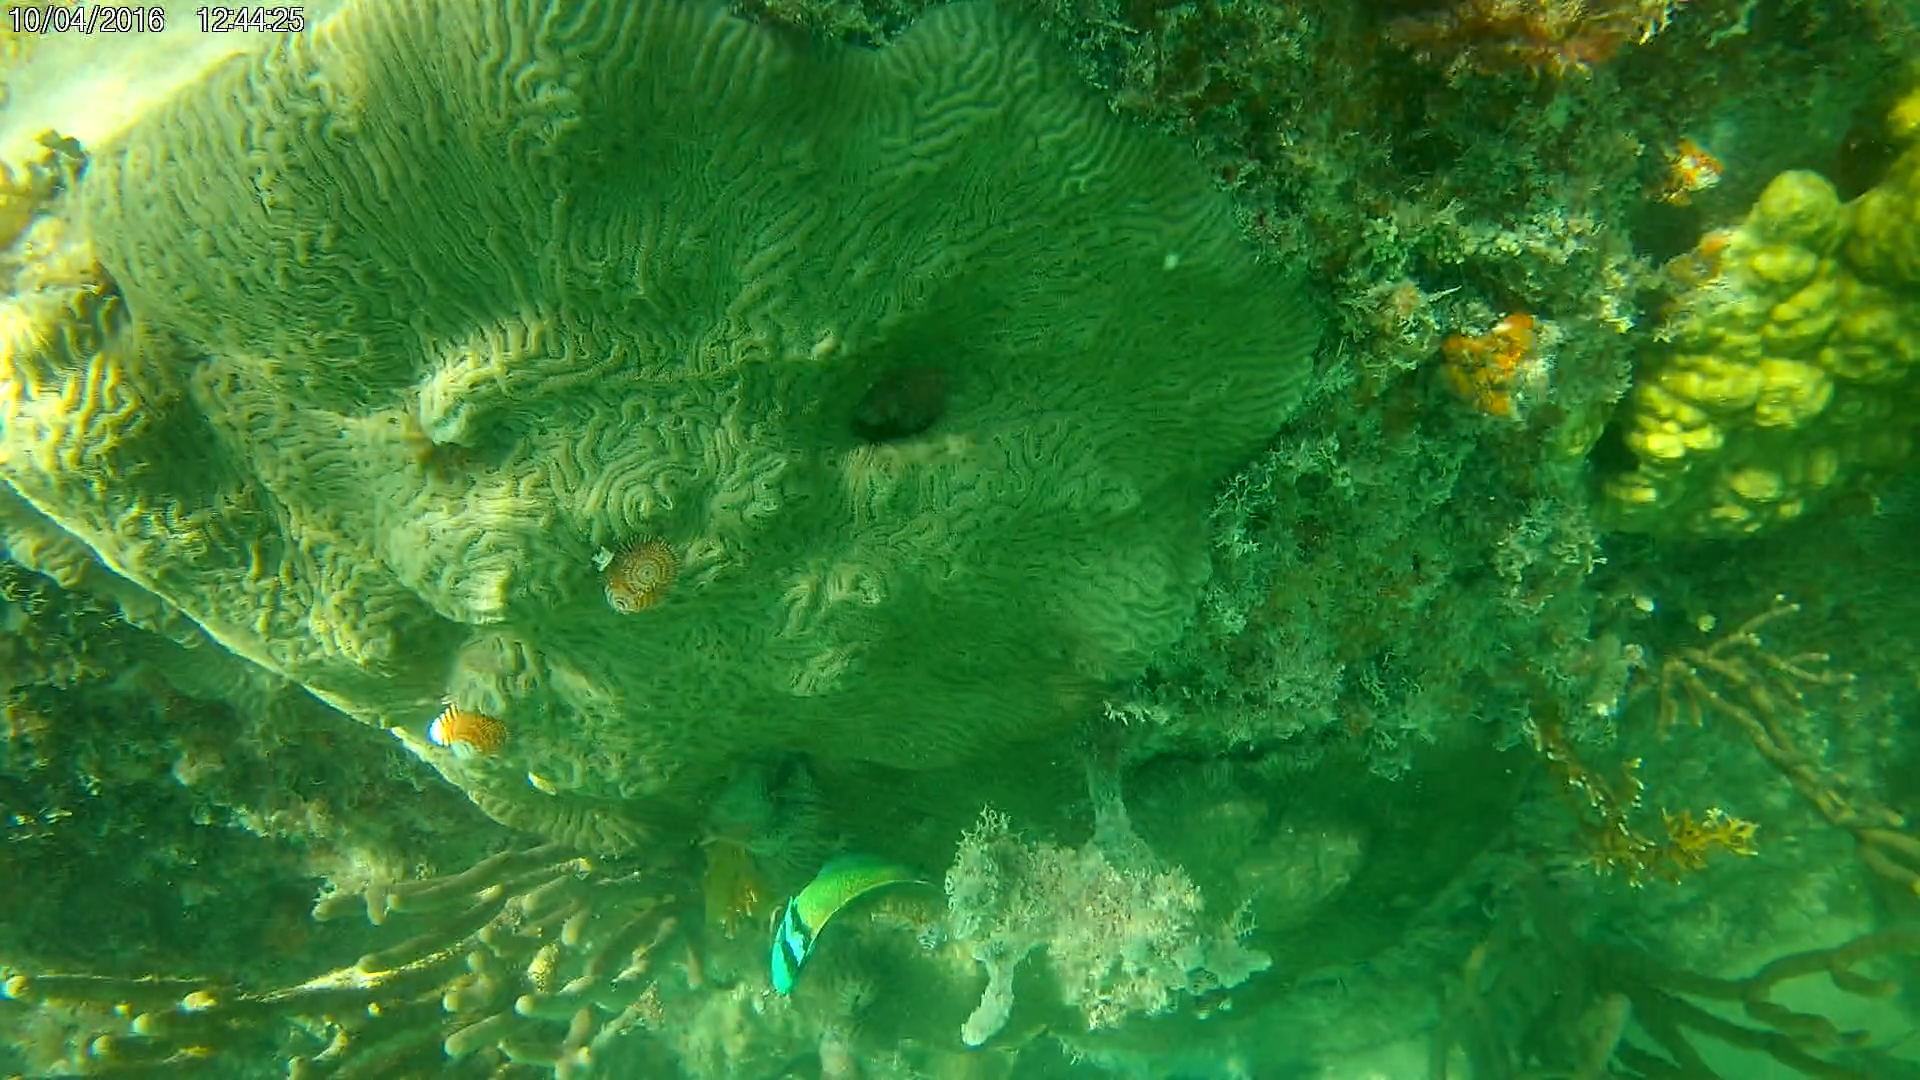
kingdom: Animalia
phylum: Chordata
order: Perciformes
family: Labridae
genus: Thalassoma
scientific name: Thalassoma bifasciatum
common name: Bluehead wrasse
